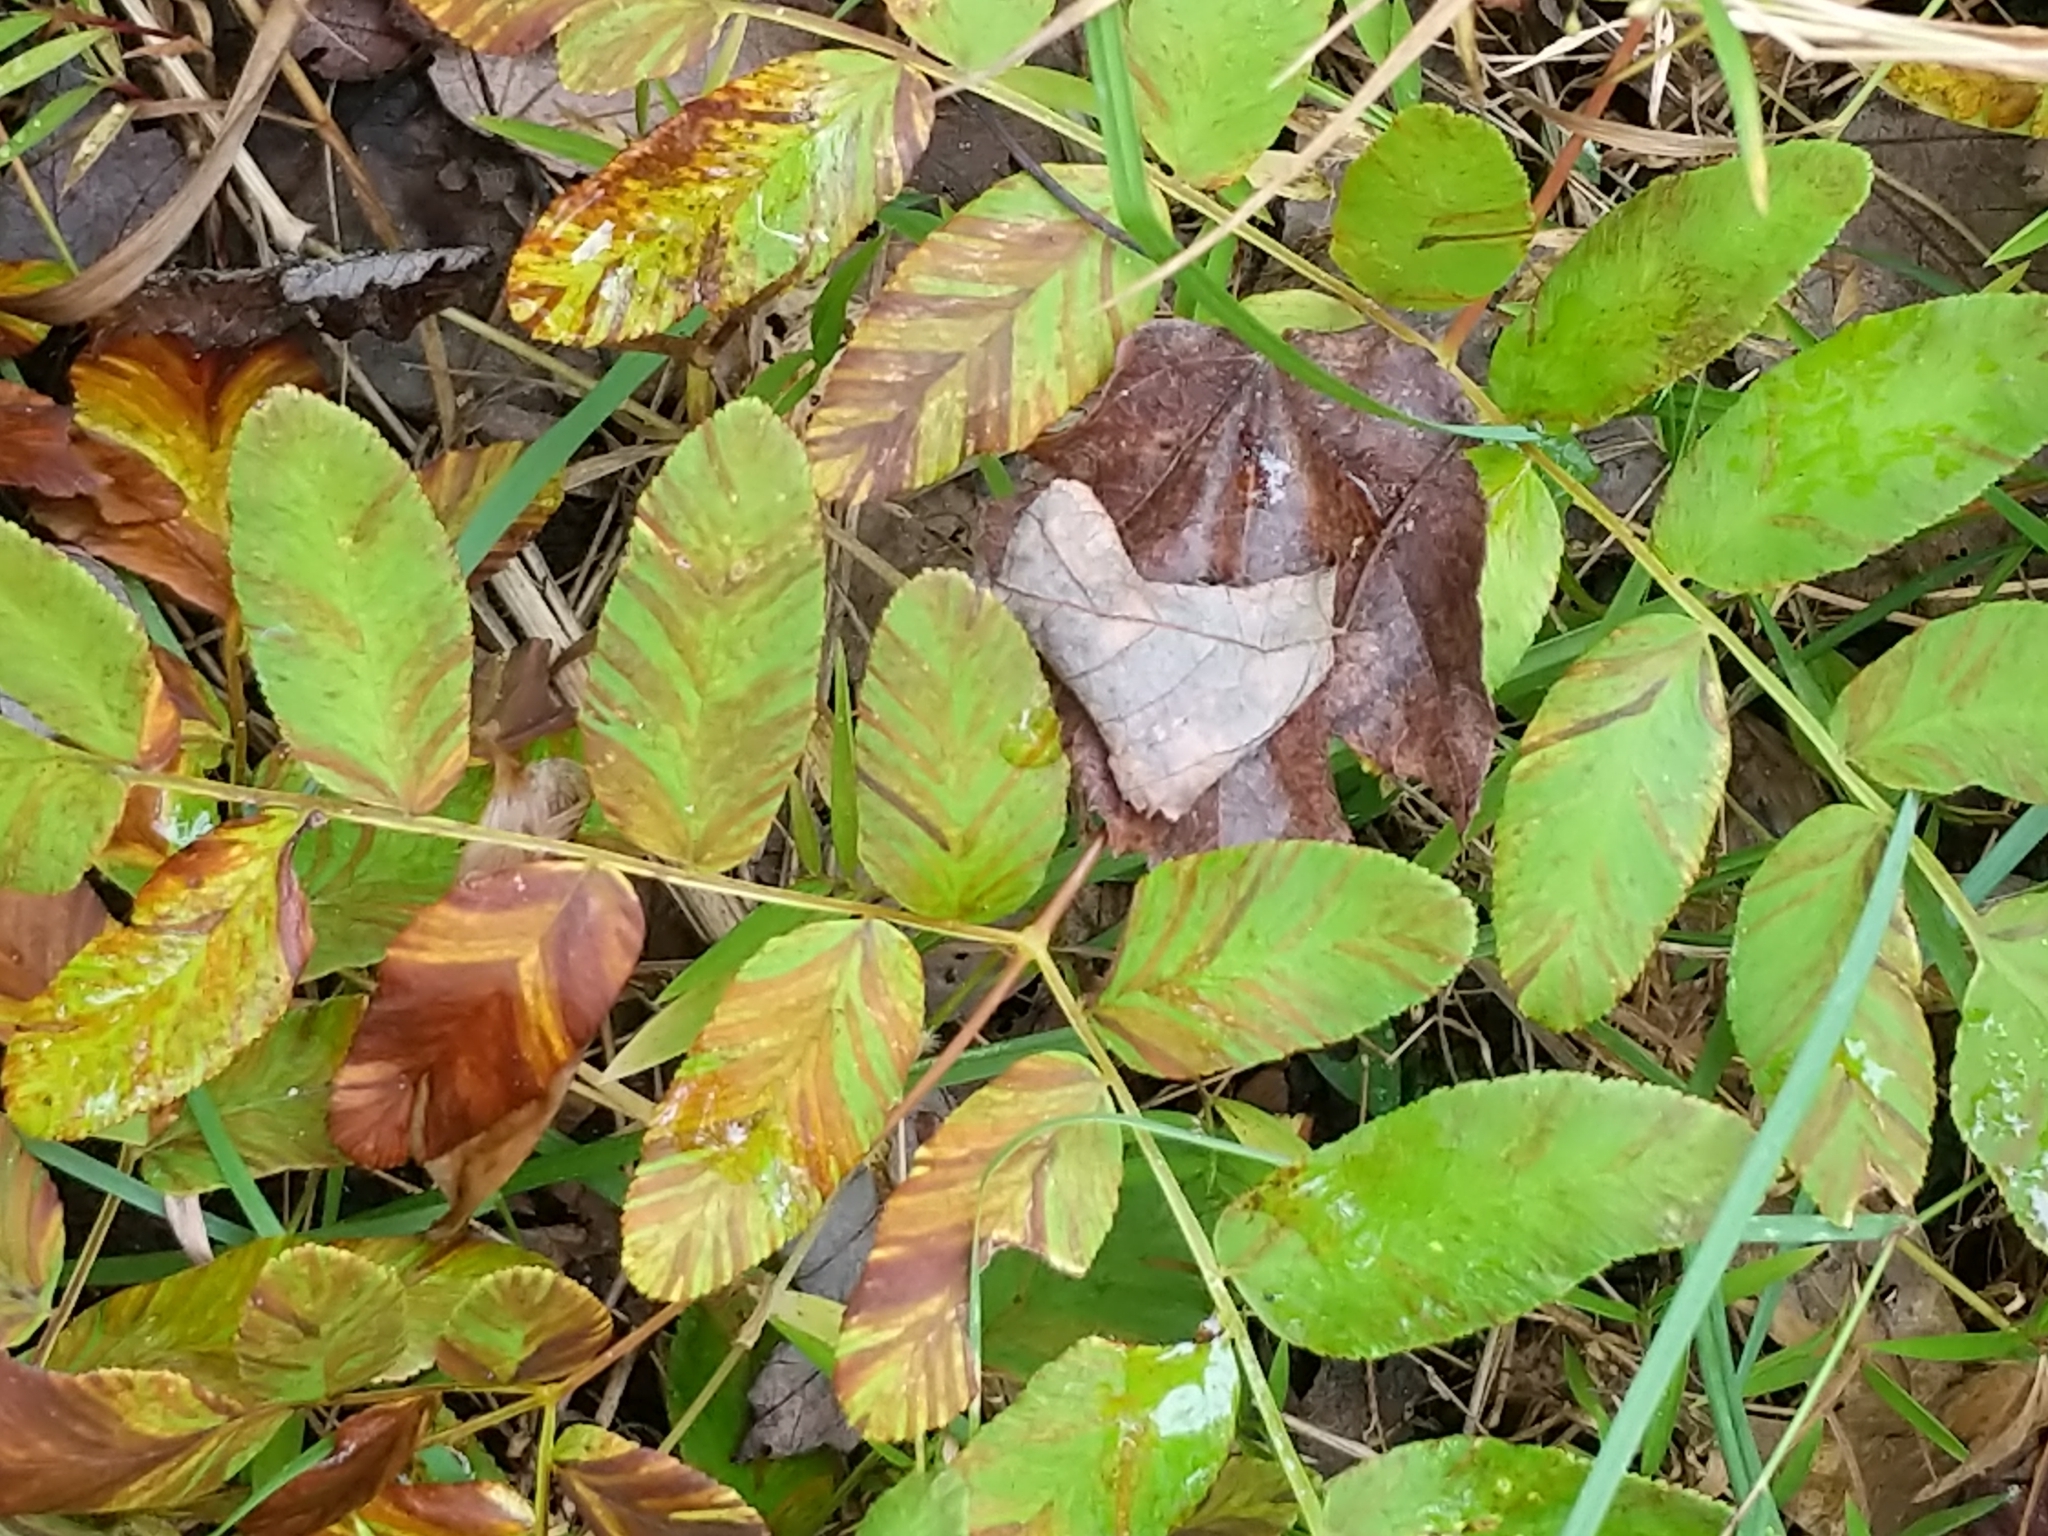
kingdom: Plantae
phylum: Tracheophyta
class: Polypodiopsida
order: Osmundales
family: Osmundaceae
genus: Osmunda
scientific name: Osmunda spectabilis
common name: American royal fern
